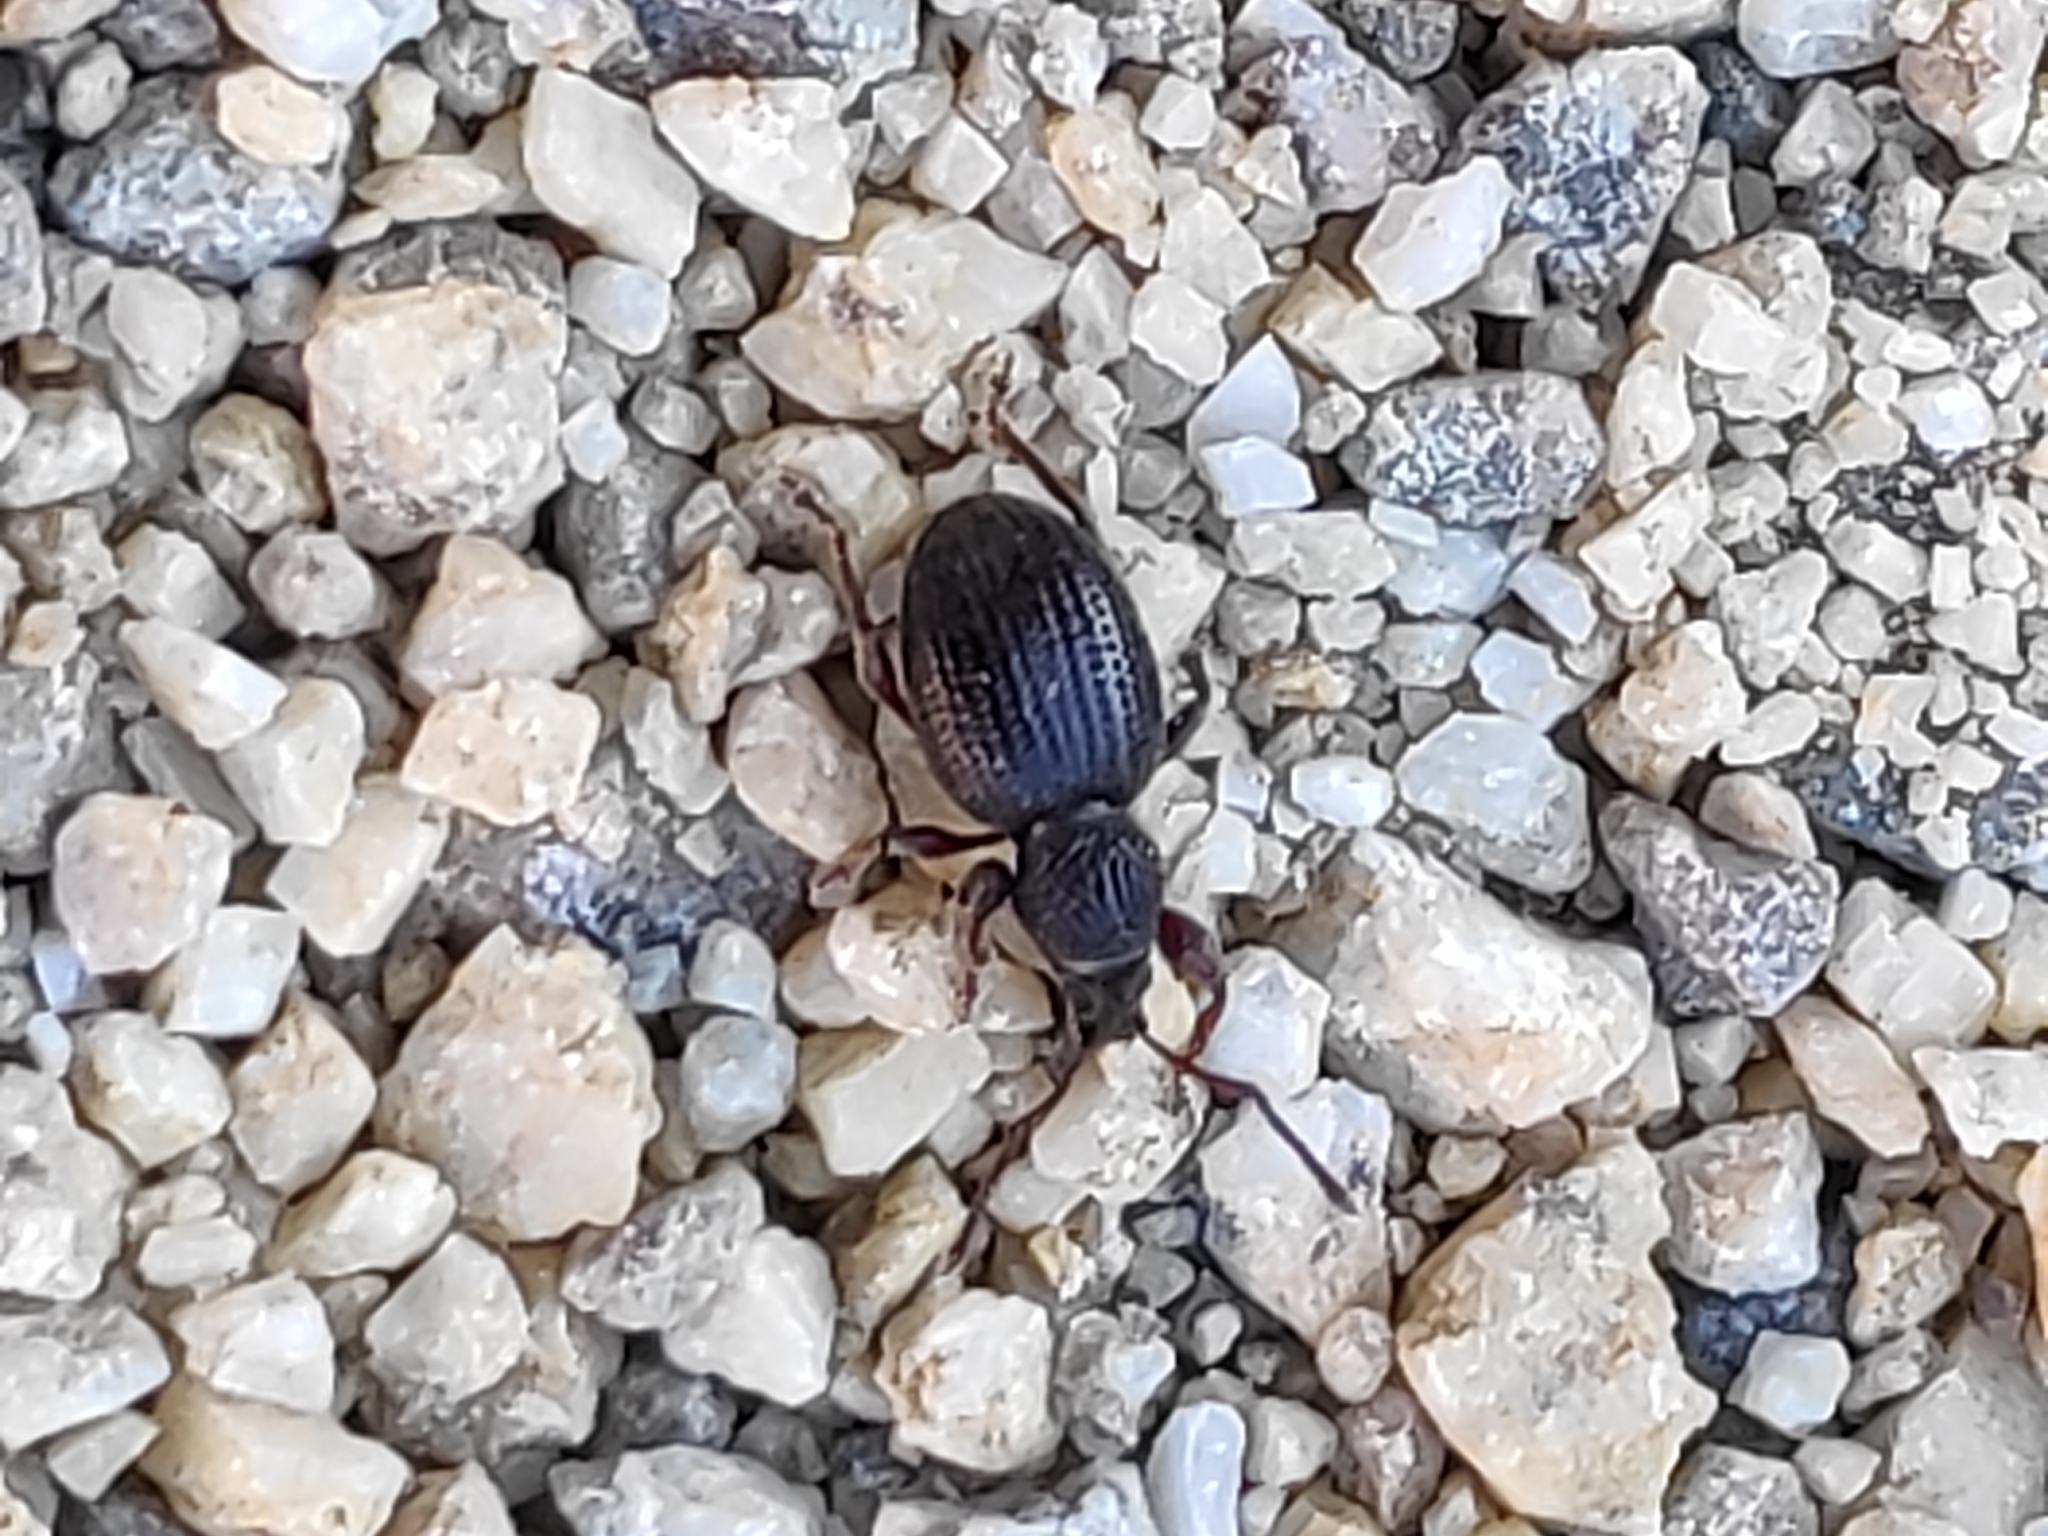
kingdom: Animalia
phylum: Arthropoda
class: Insecta
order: Coleoptera
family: Curculionidae
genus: Otiorhynchus
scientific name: Otiorhynchus ovatus
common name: Strawberry root weevil
